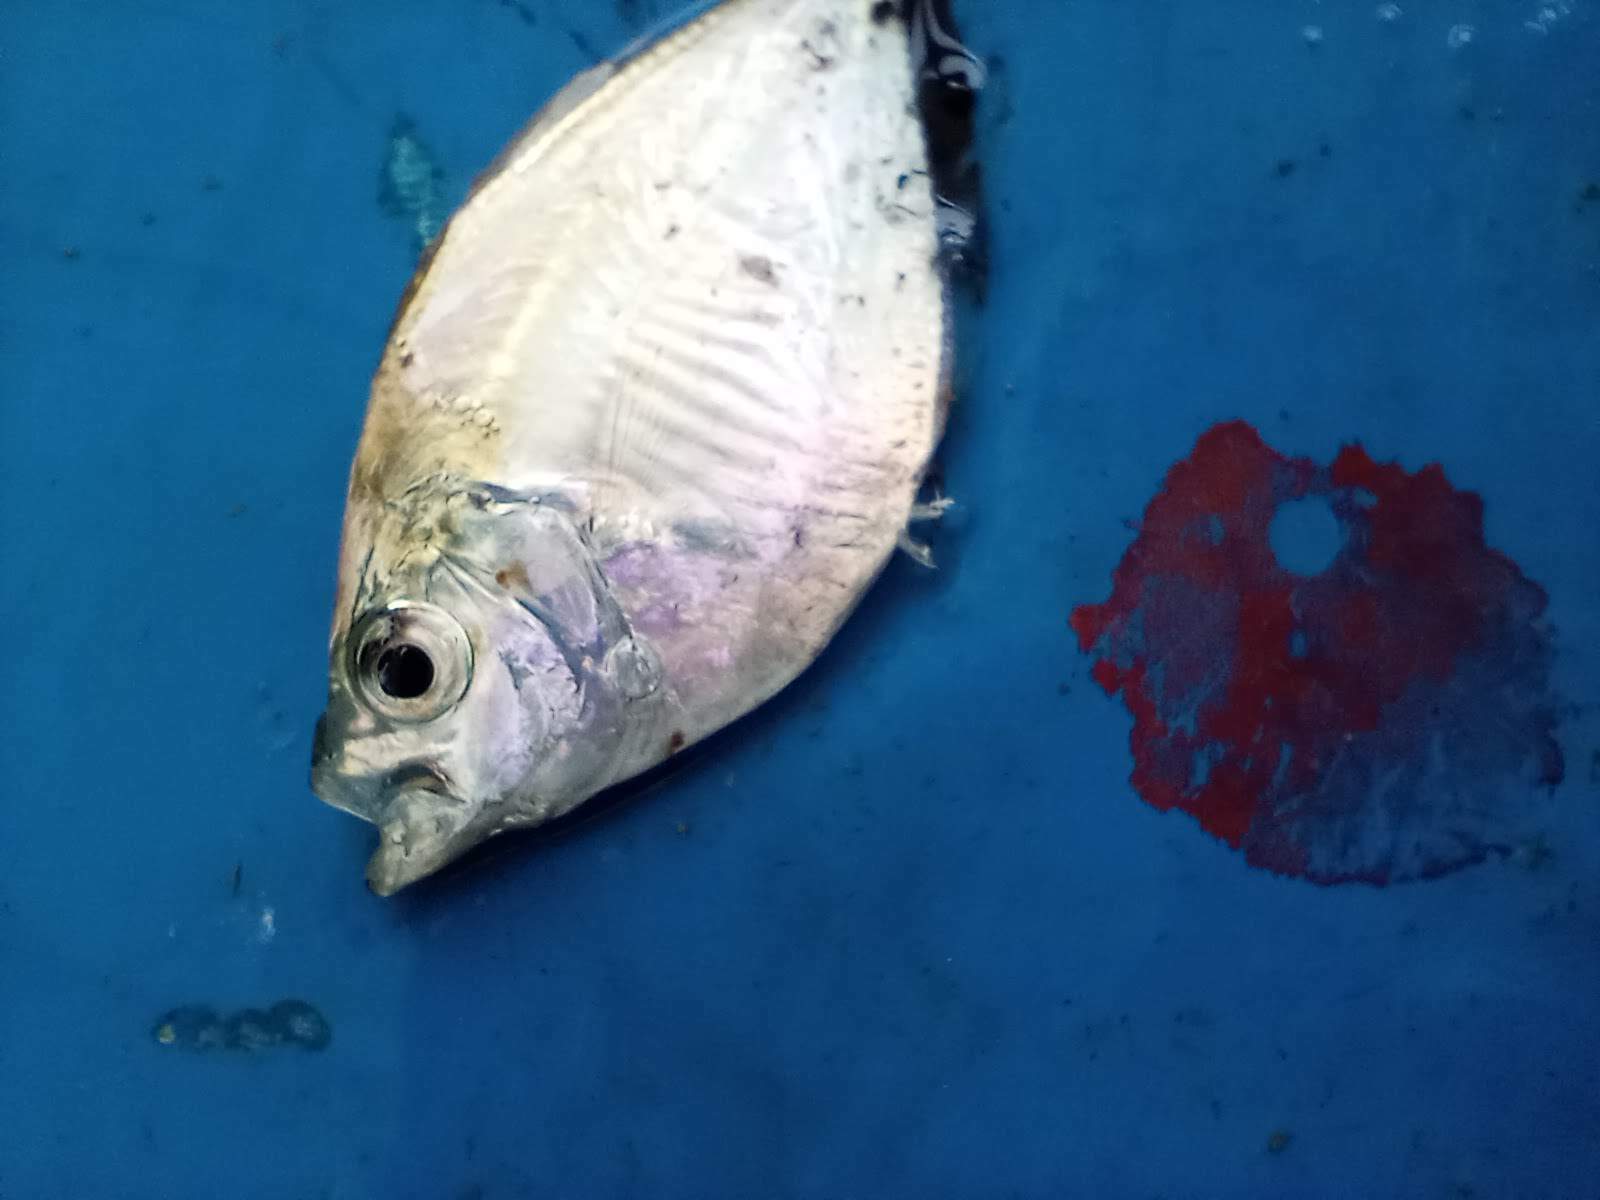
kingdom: Animalia
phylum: Chordata
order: Perciformes
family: Carangidae
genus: Chloroscombrus
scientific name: Chloroscombrus chrysurus
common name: Bumper
